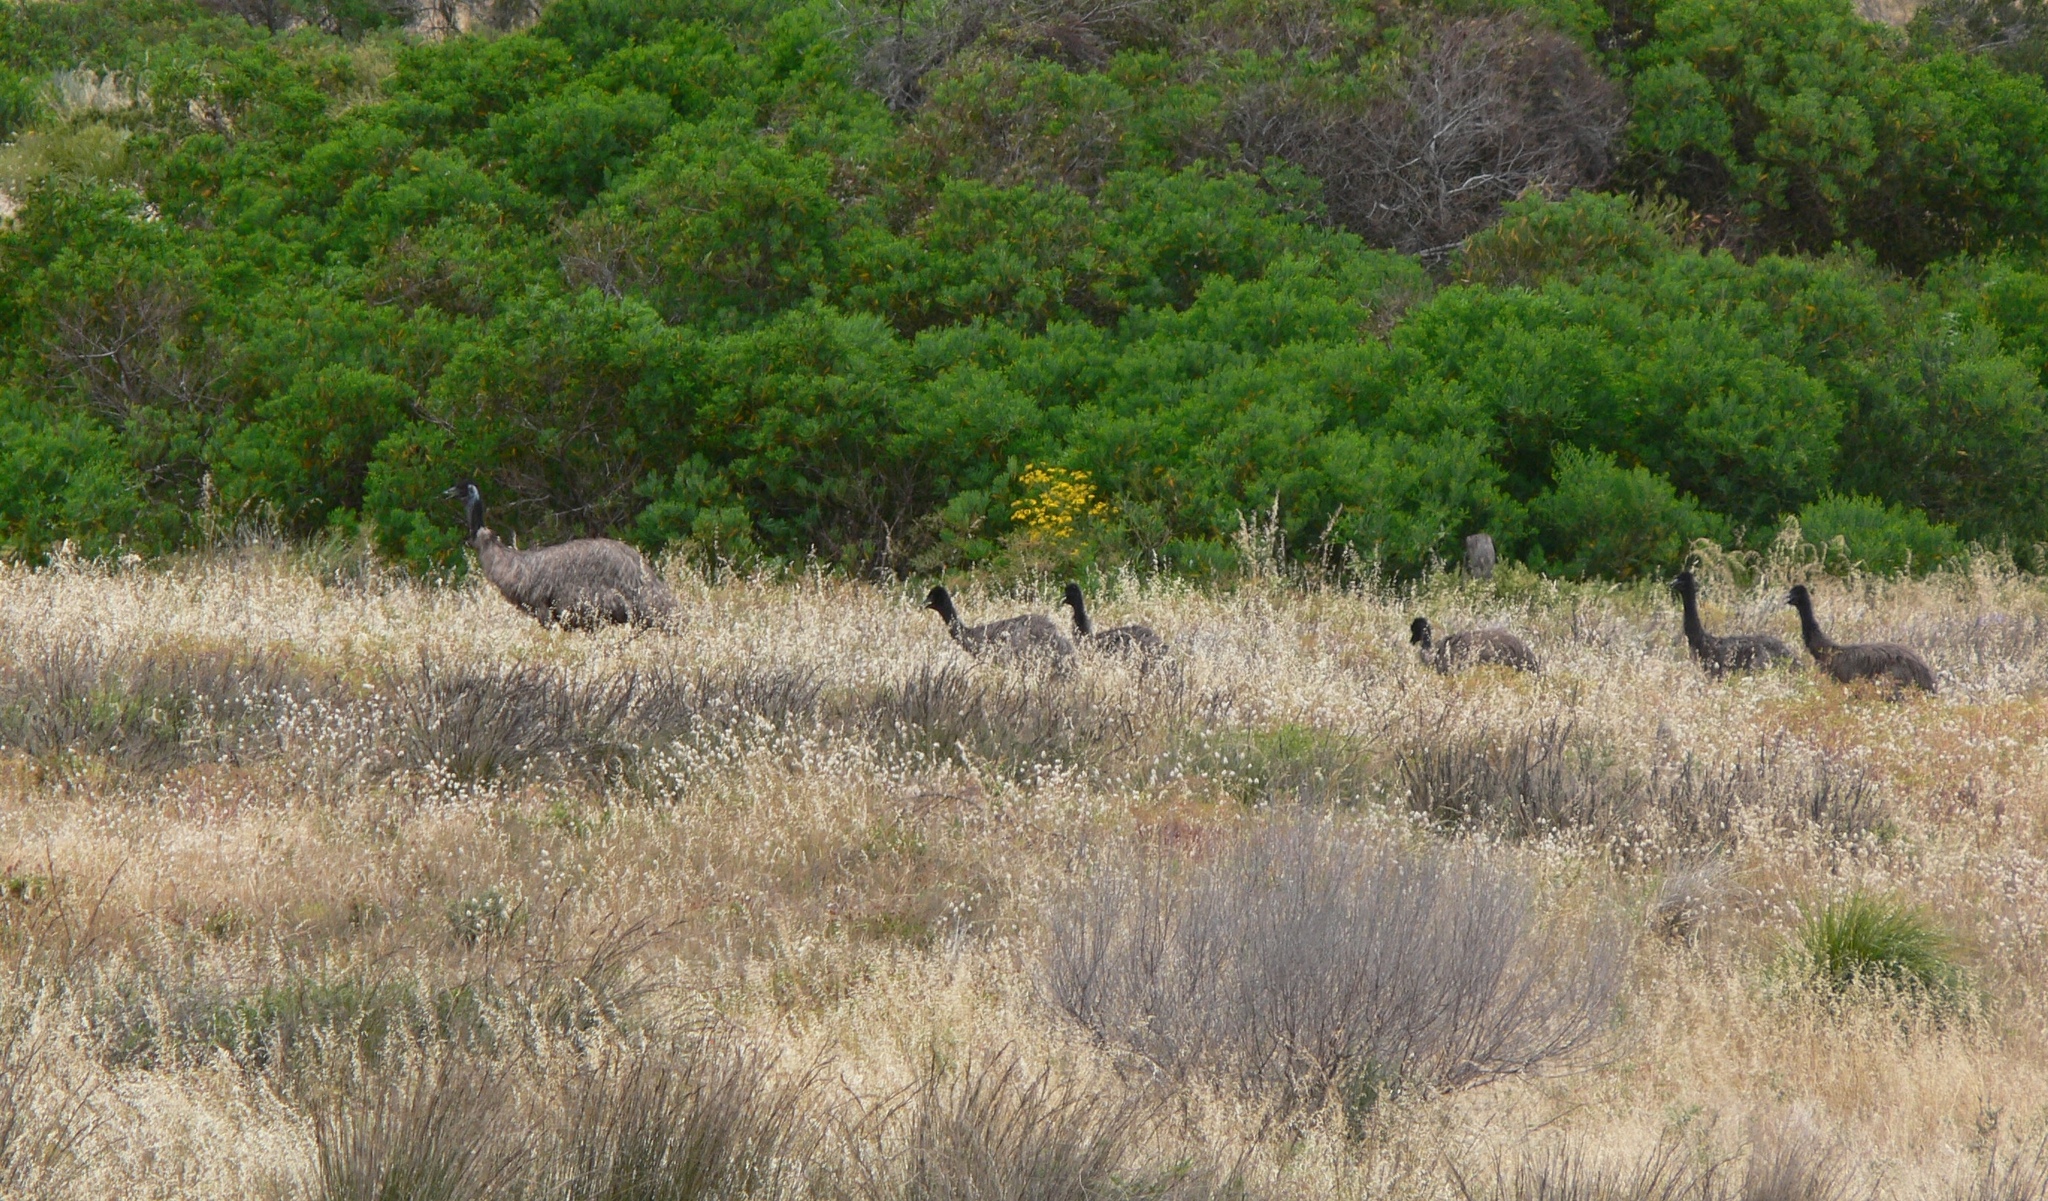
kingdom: Animalia
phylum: Chordata
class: Aves
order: Casuariiformes
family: Dromaiidae
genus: Dromaius
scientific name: Dromaius novaehollandiae
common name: Emu
